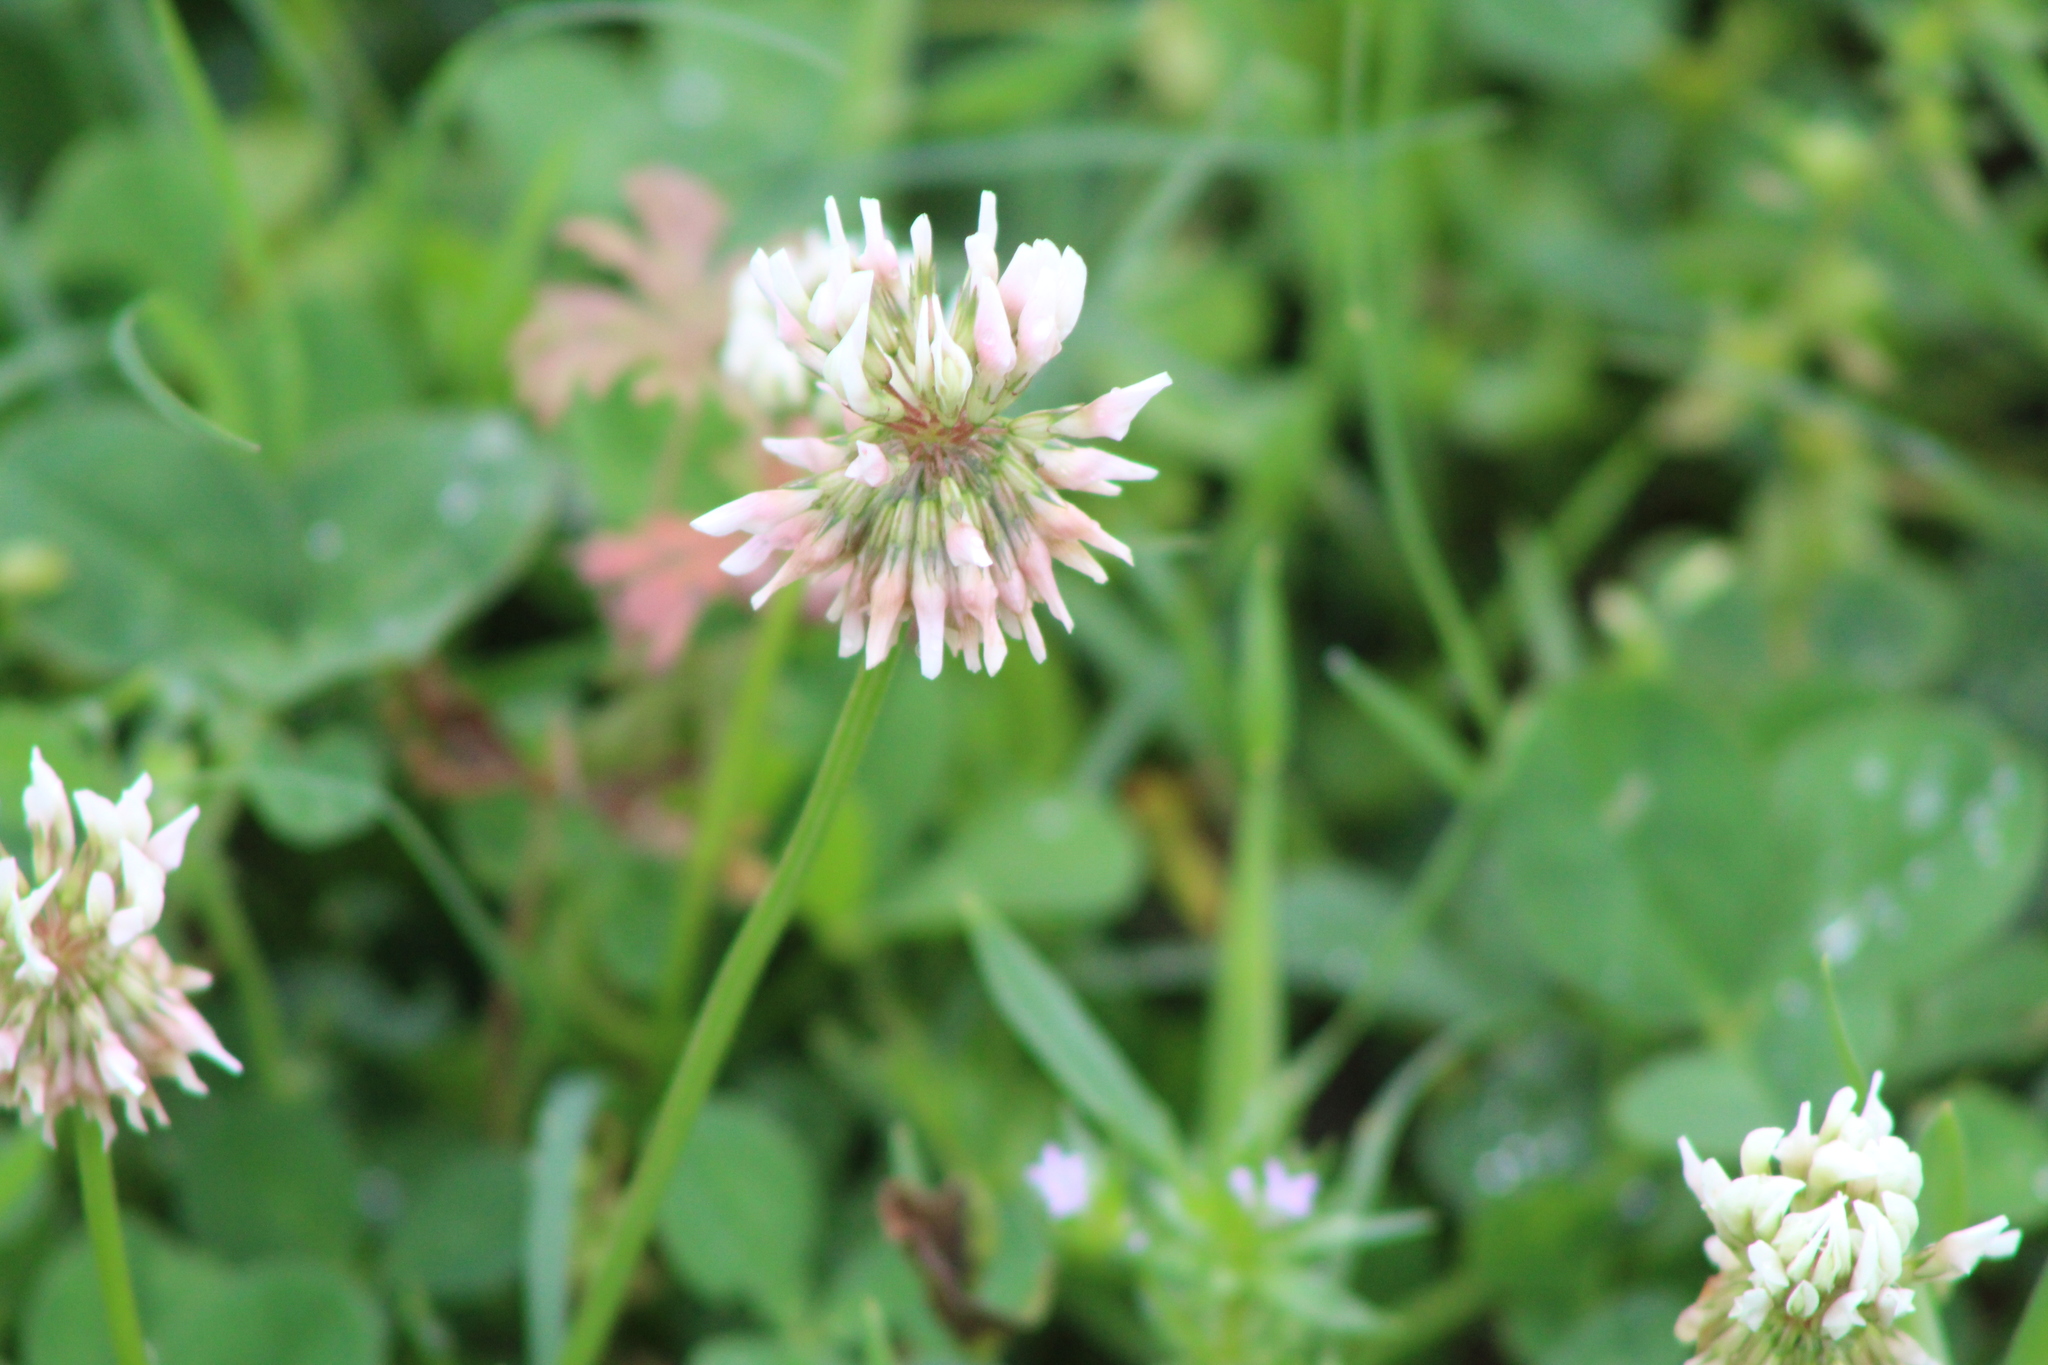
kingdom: Plantae
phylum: Tracheophyta
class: Magnoliopsida
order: Fabales
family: Fabaceae
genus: Trifolium
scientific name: Trifolium repens
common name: White clover
